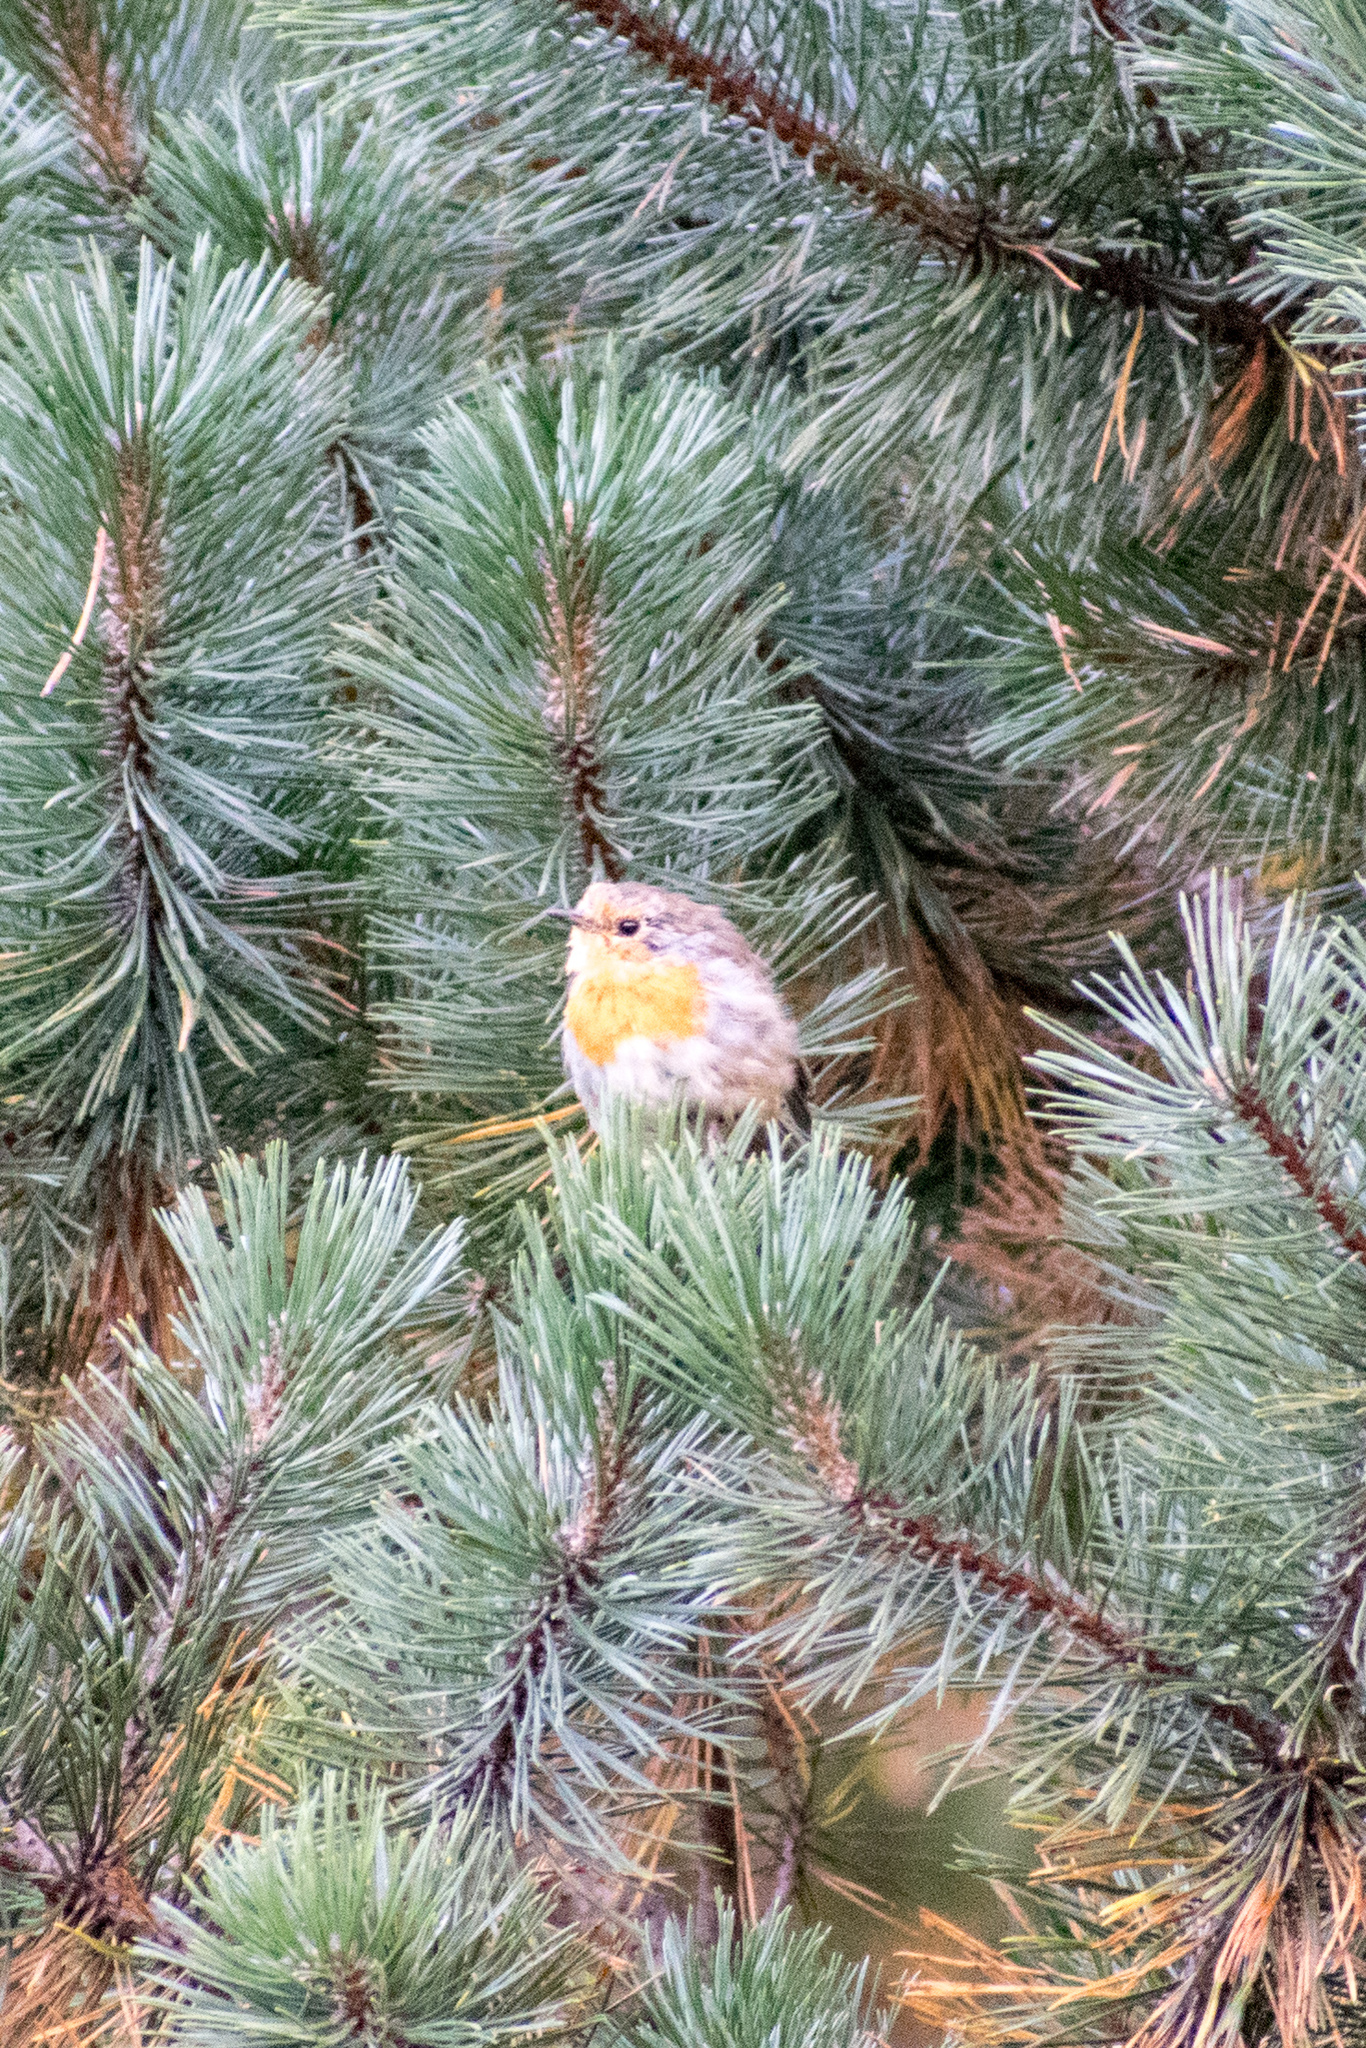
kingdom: Animalia
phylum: Chordata
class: Aves
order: Passeriformes
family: Muscicapidae
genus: Erithacus
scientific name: Erithacus rubecula
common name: European robin
